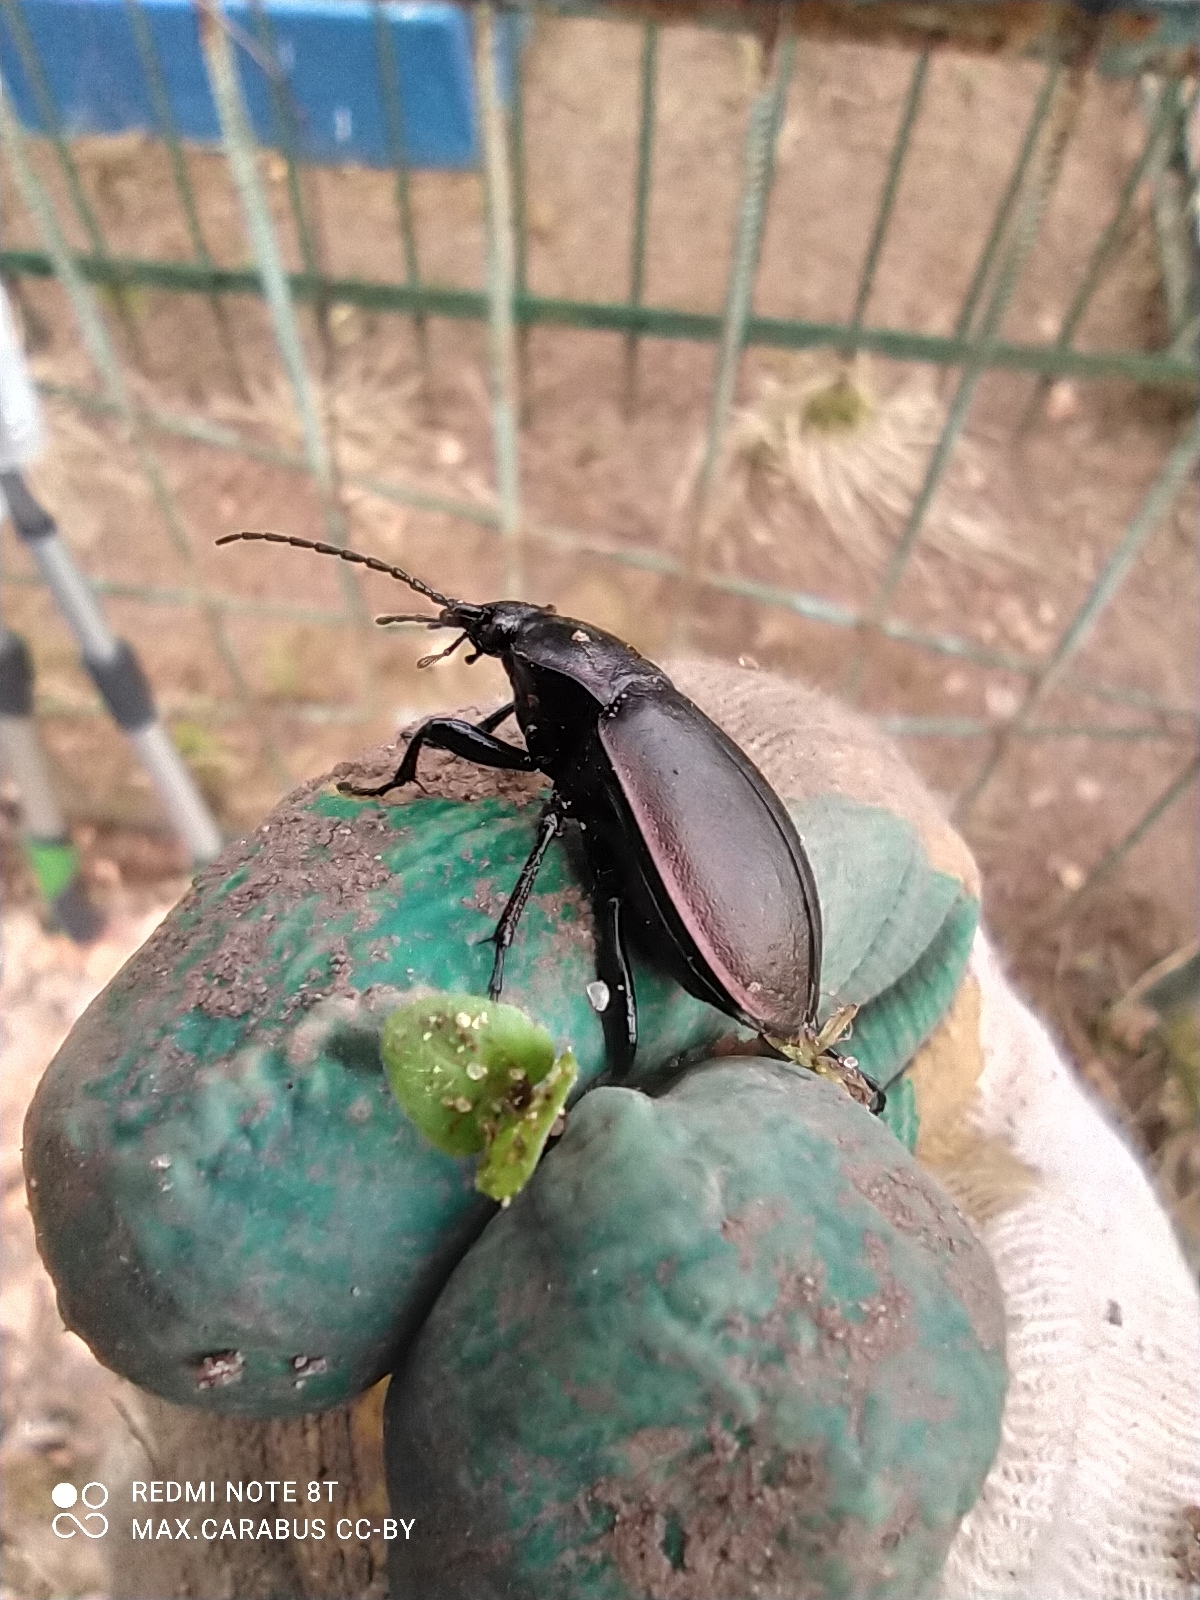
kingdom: Animalia
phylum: Arthropoda
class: Insecta
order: Coleoptera
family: Carabidae
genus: Carabus
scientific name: Carabus nemoralis
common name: European ground beetle
